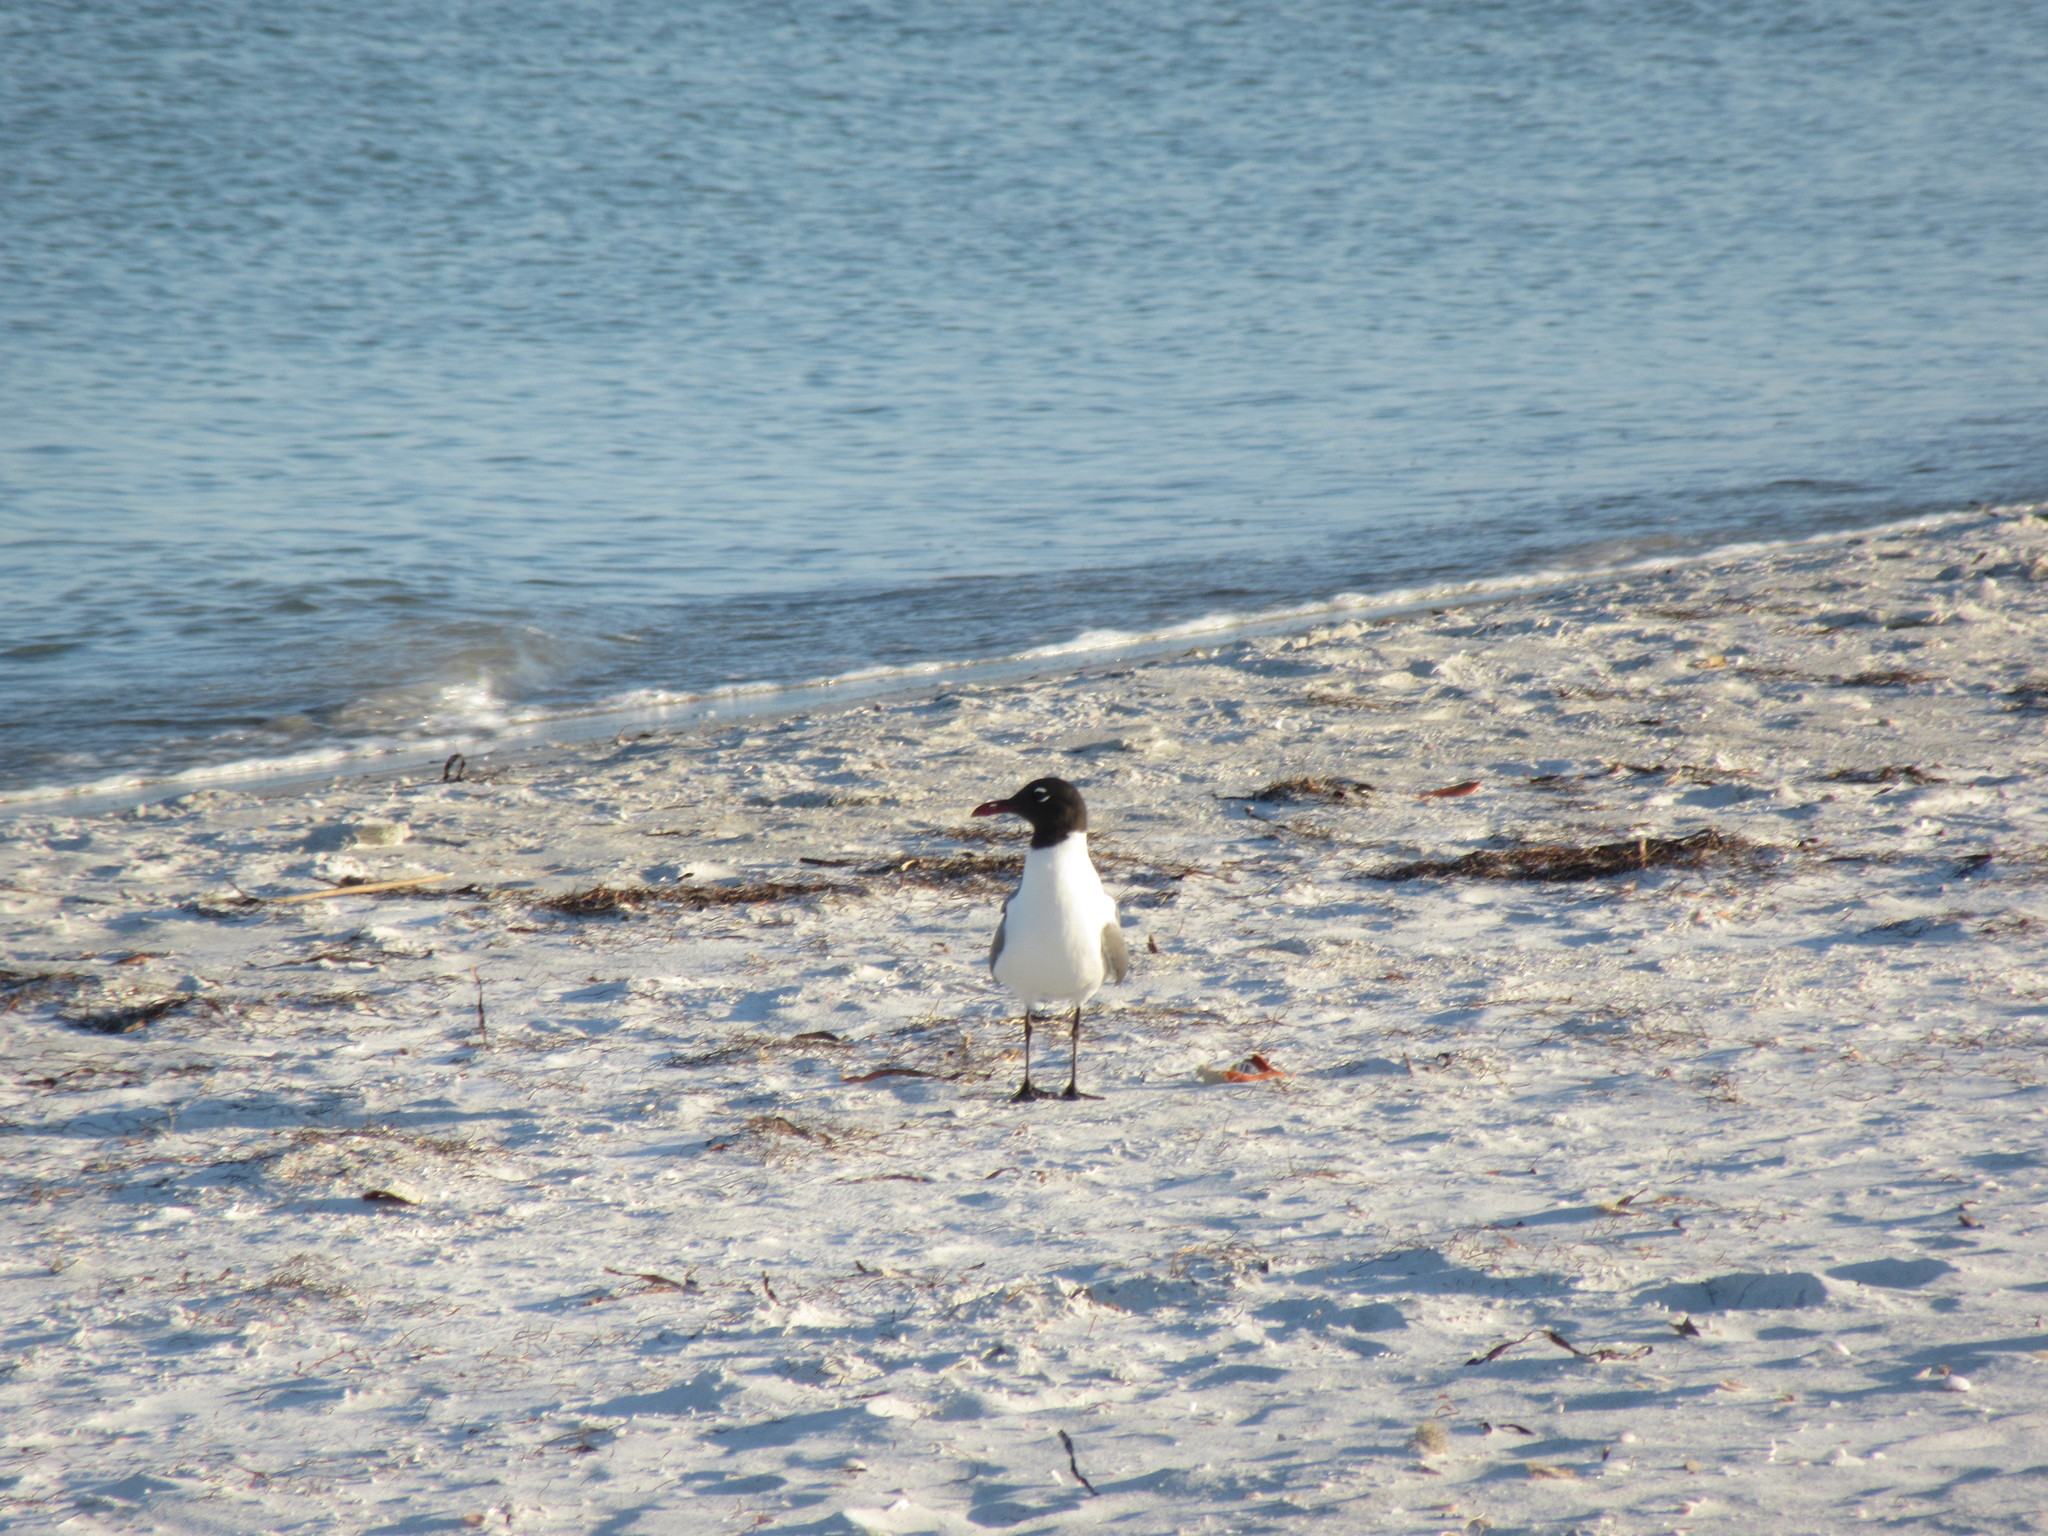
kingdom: Animalia
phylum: Chordata
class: Aves
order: Charadriiformes
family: Laridae
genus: Leucophaeus
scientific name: Leucophaeus atricilla
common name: Laughing gull
